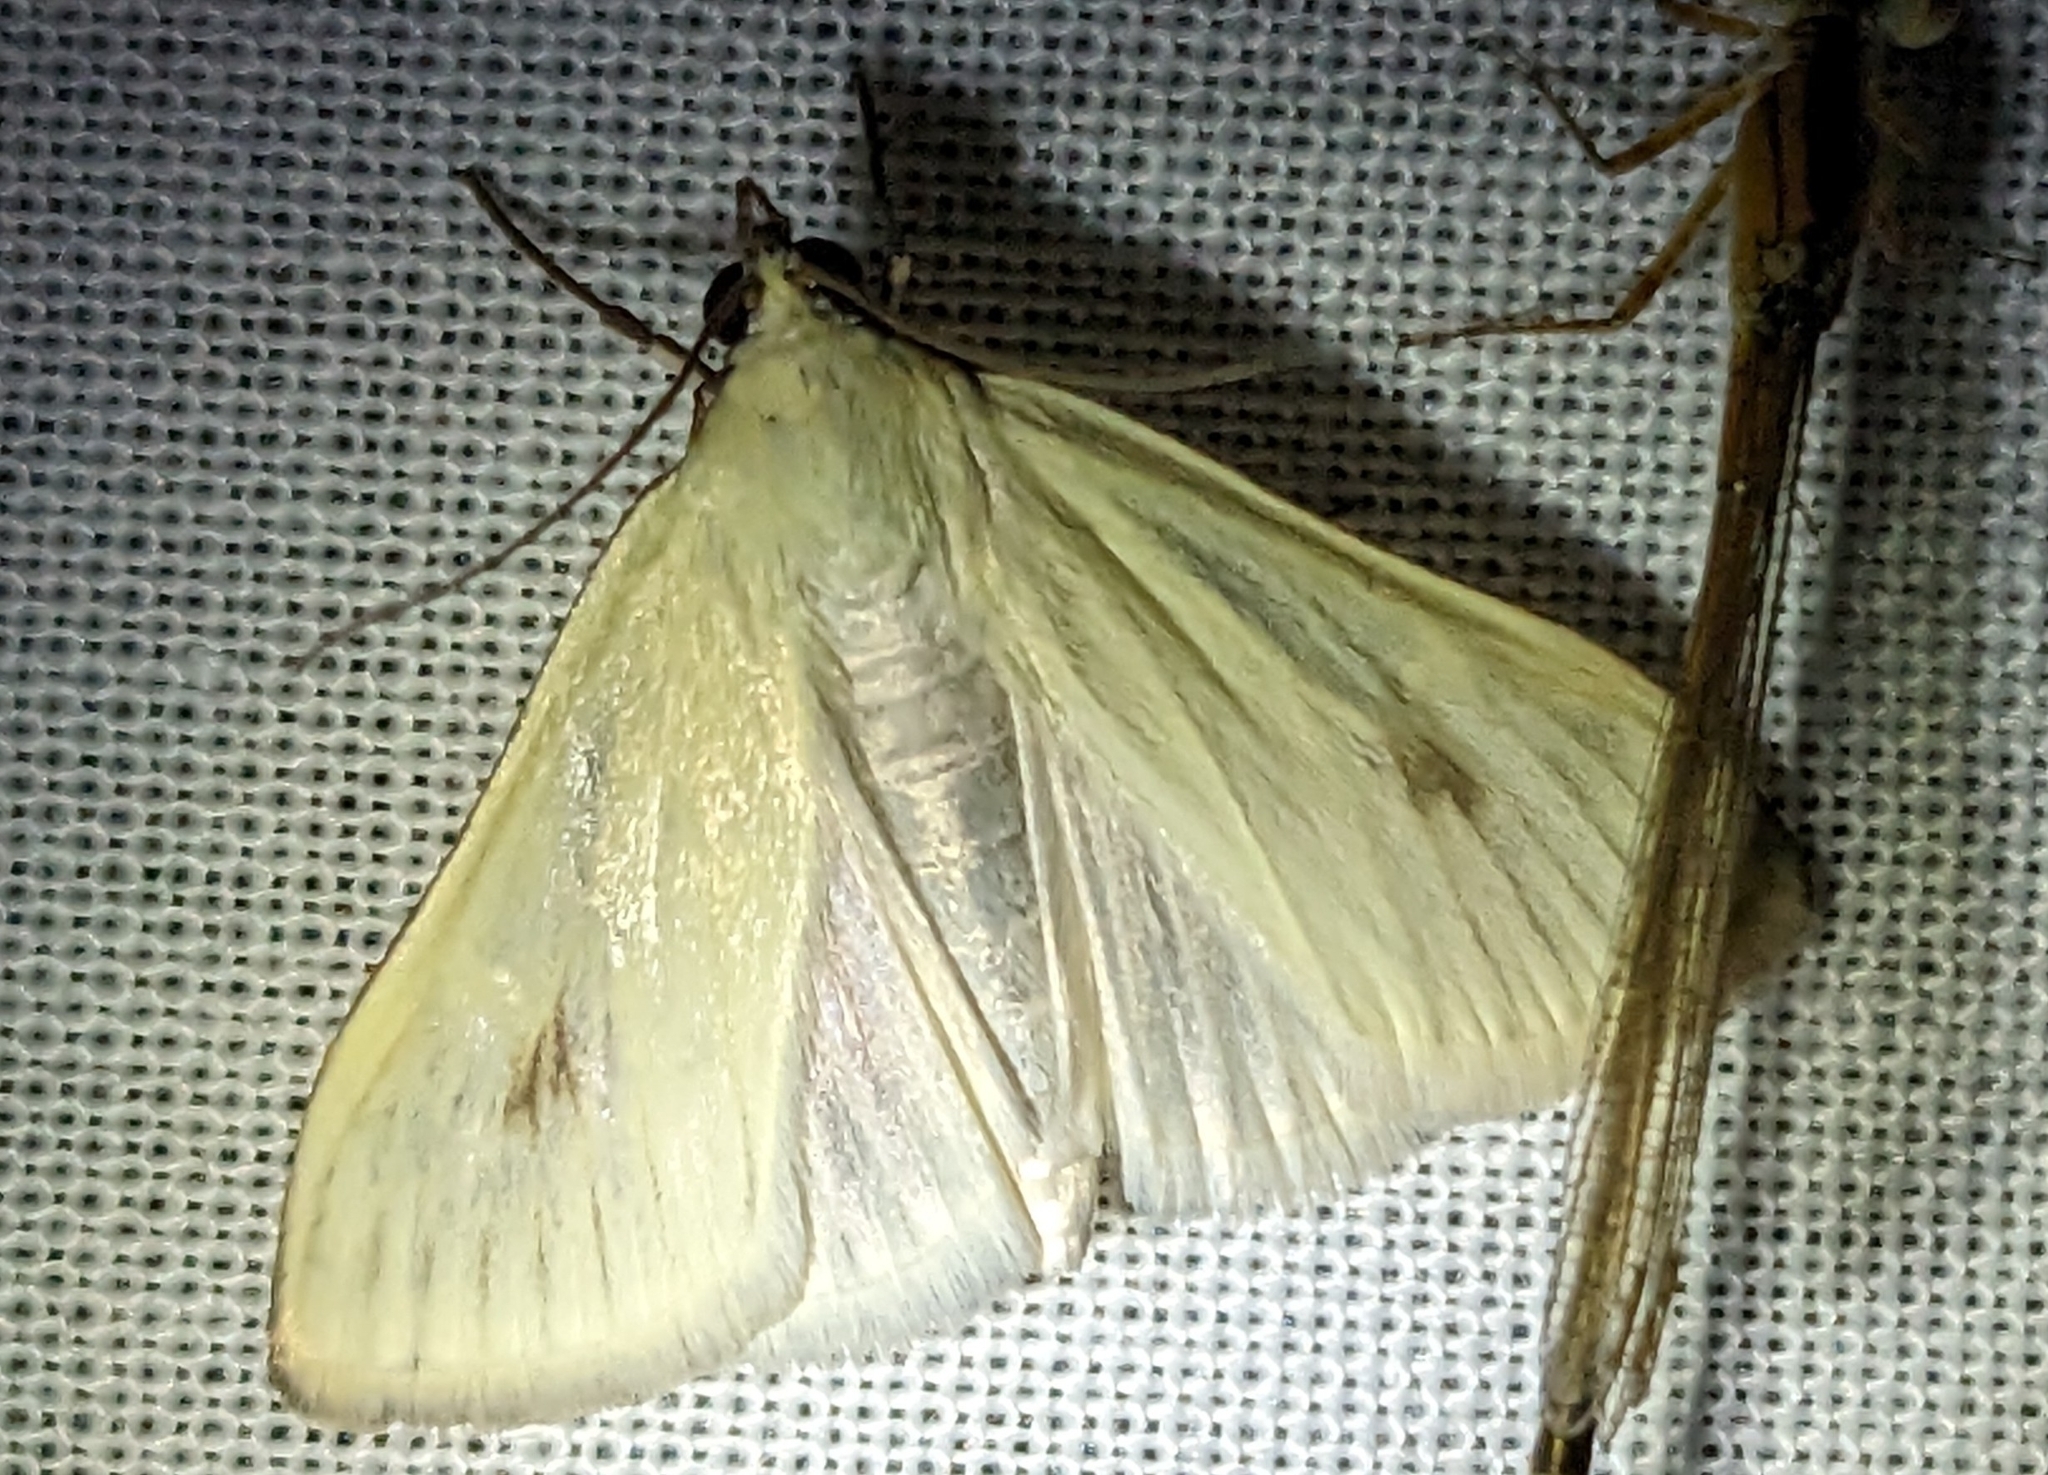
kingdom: Animalia
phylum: Arthropoda
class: Insecta
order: Lepidoptera
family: Crambidae
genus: Sitochroa
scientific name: Sitochroa palealis
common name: Greenish-yellow sitochroa moth
